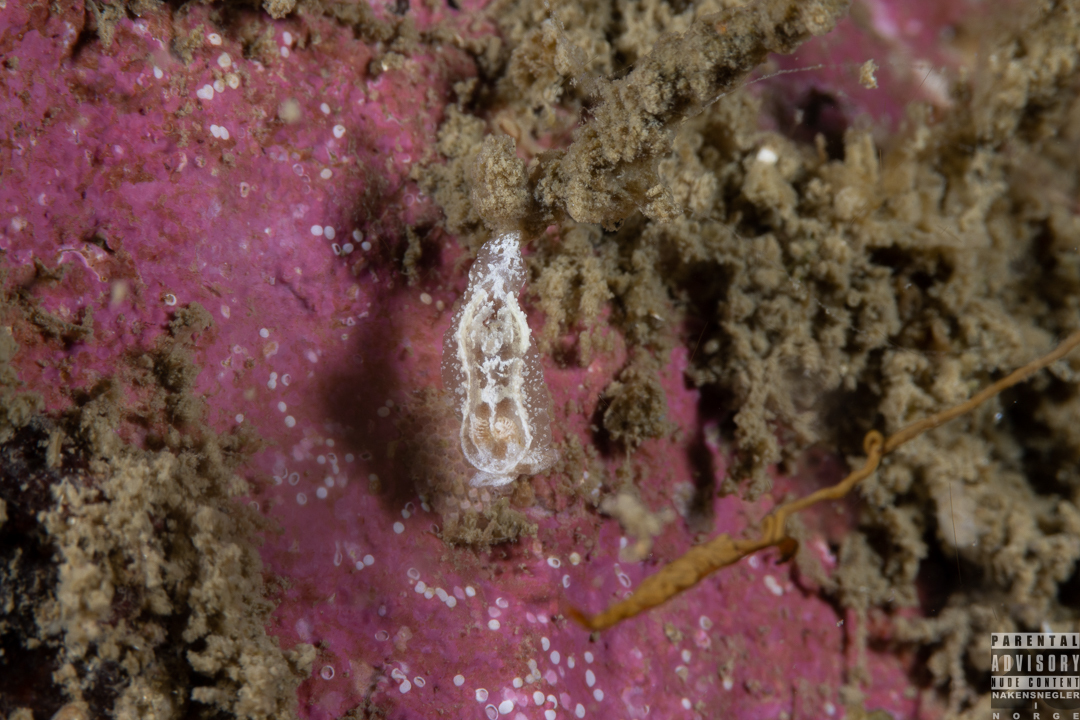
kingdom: Animalia
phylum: Mollusca
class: Gastropoda
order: Nudibranchia
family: Goniodorididae
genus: Pelagella
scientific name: Pelagella castanea
